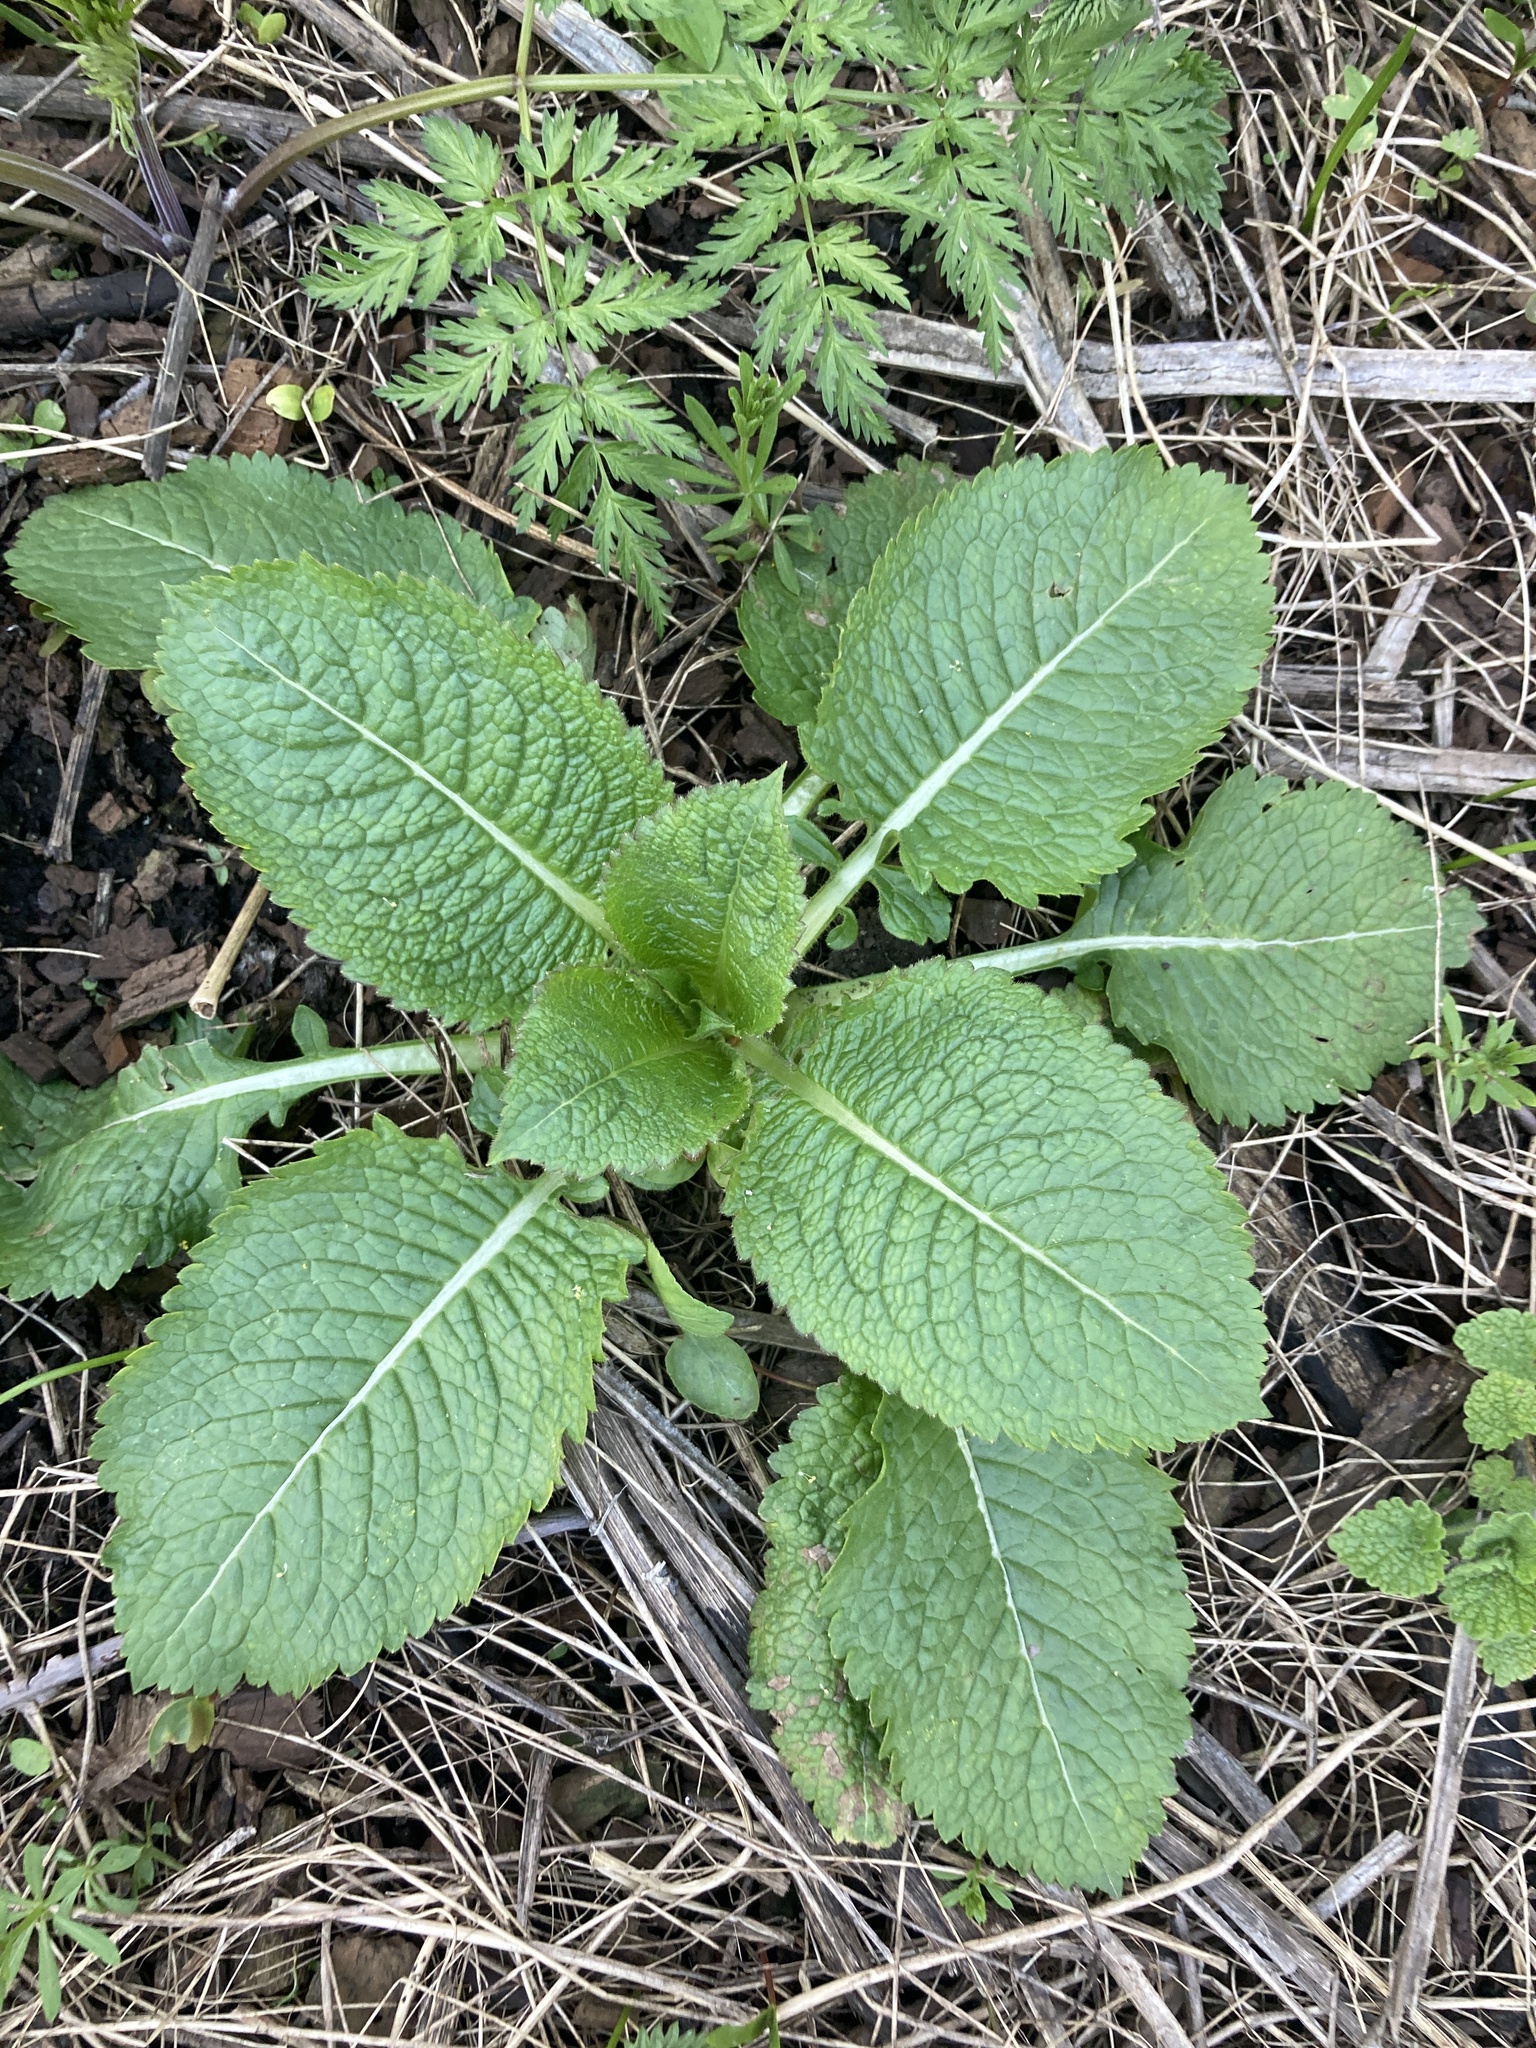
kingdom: Plantae
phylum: Tracheophyta
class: Magnoliopsida
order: Dipsacales
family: Caprifoliaceae
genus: Dipsacus
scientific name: Dipsacus strigosus
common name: Yellow-flowered teasel
